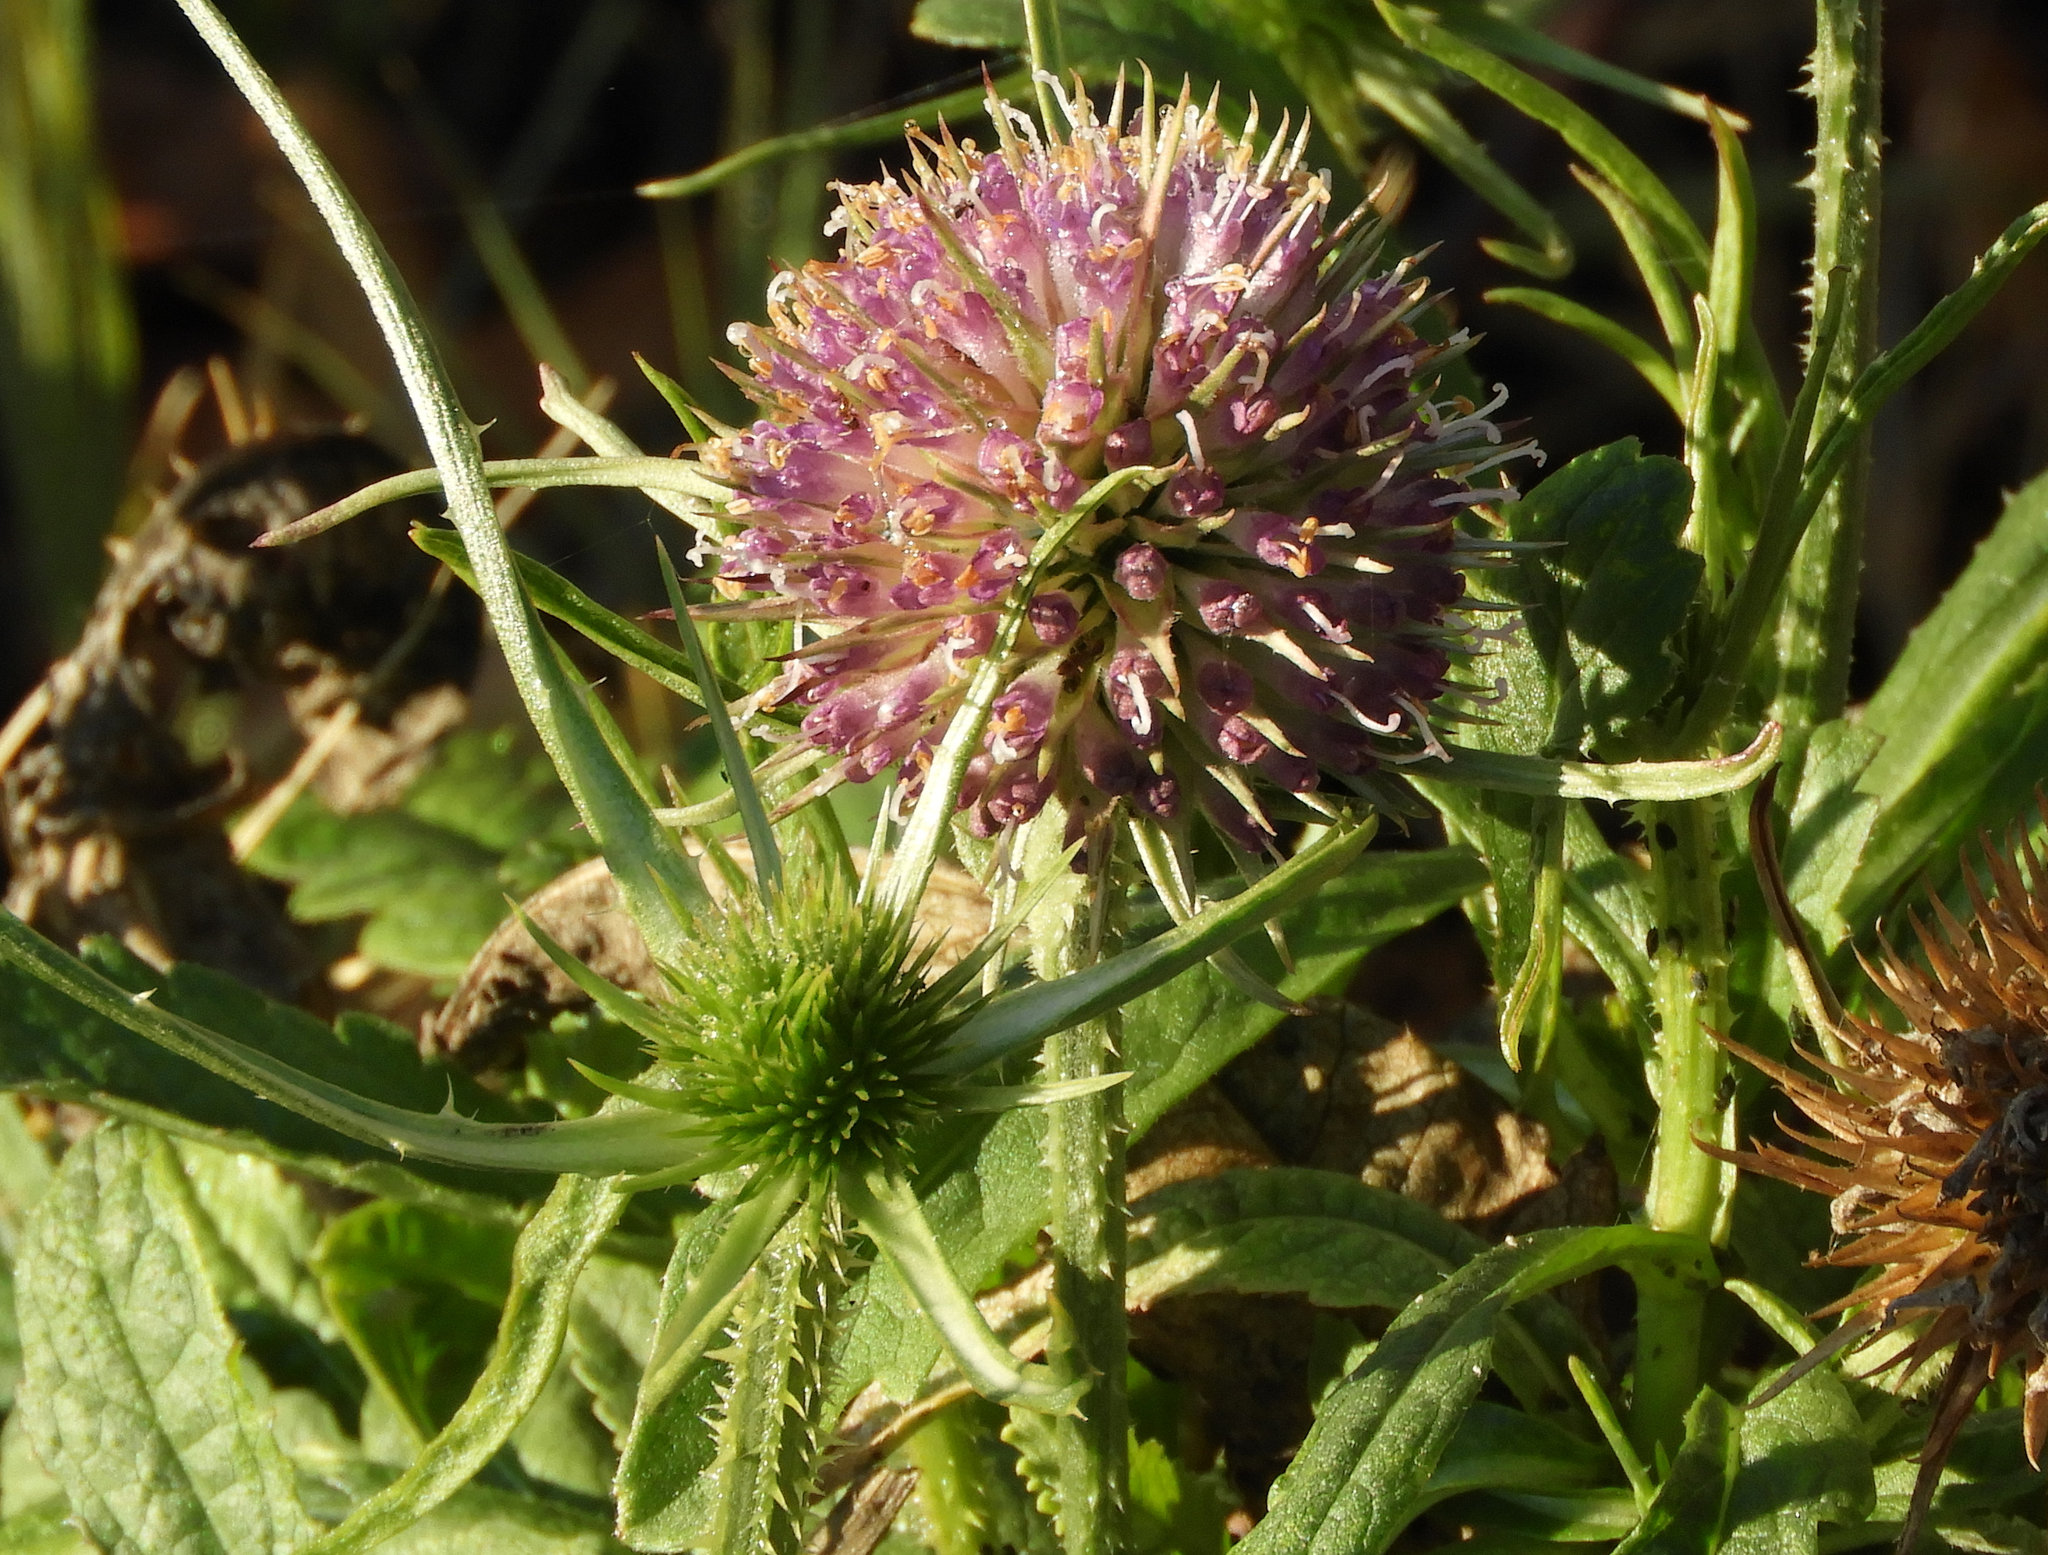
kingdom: Plantae
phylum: Tracheophyta
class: Magnoliopsida
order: Dipsacales
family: Caprifoliaceae
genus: Dipsacus
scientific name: Dipsacus fullonum
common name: Teasel
